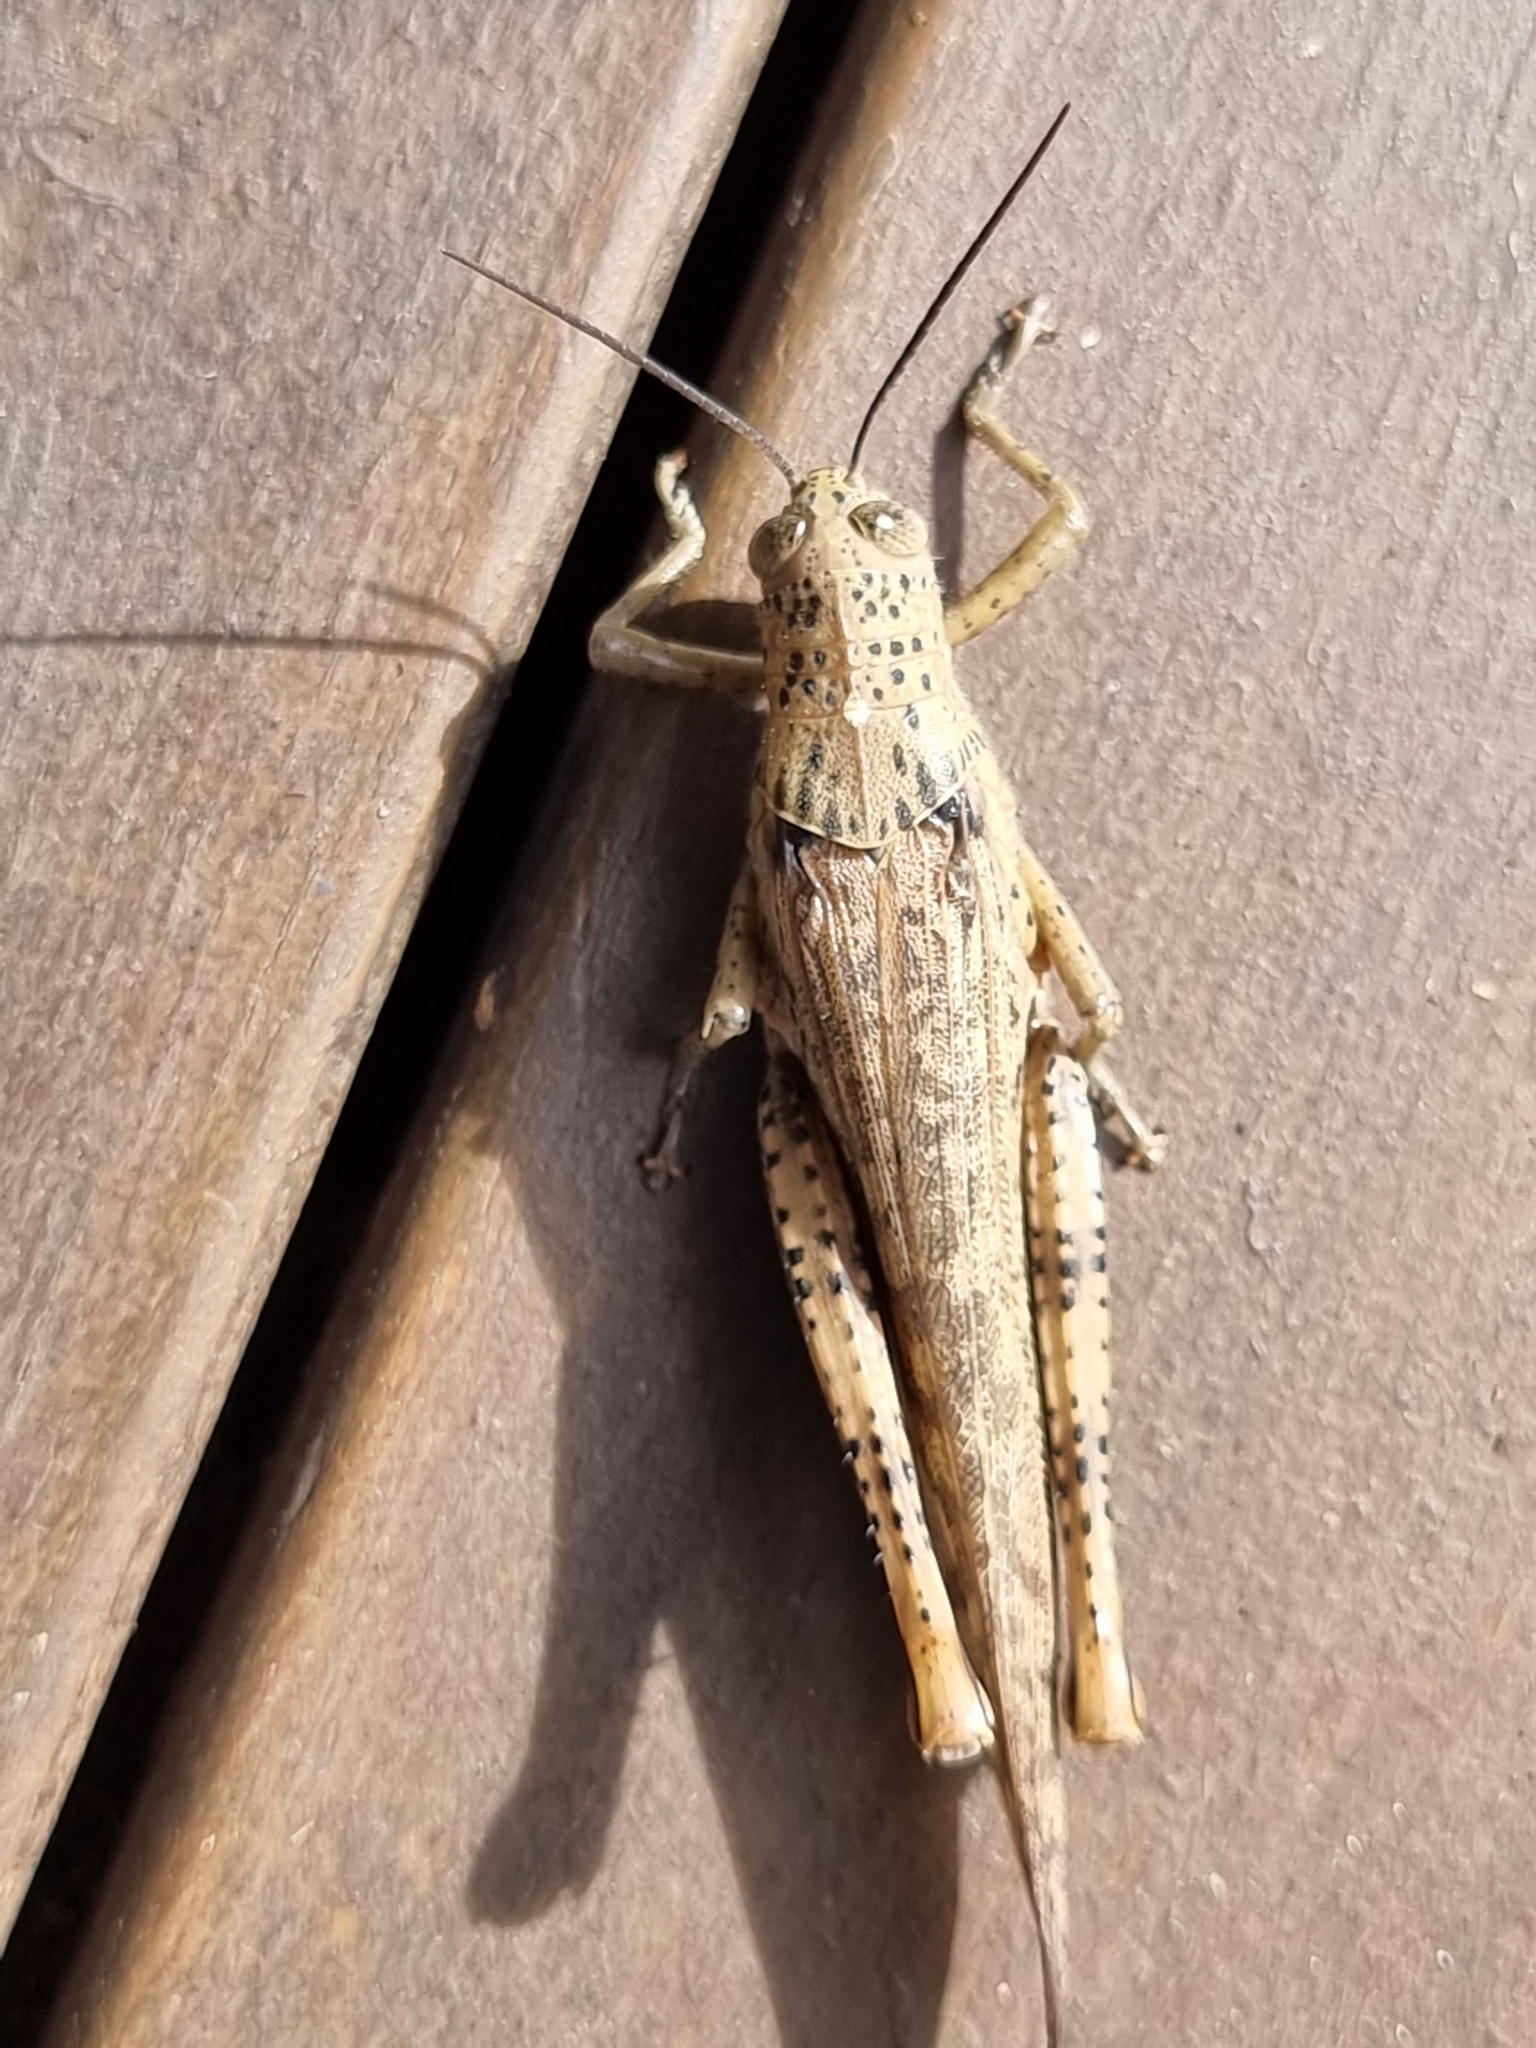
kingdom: Animalia
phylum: Arthropoda
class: Insecta
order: Orthoptera
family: Acrididae
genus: Valanga
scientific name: Valanga irregularis
